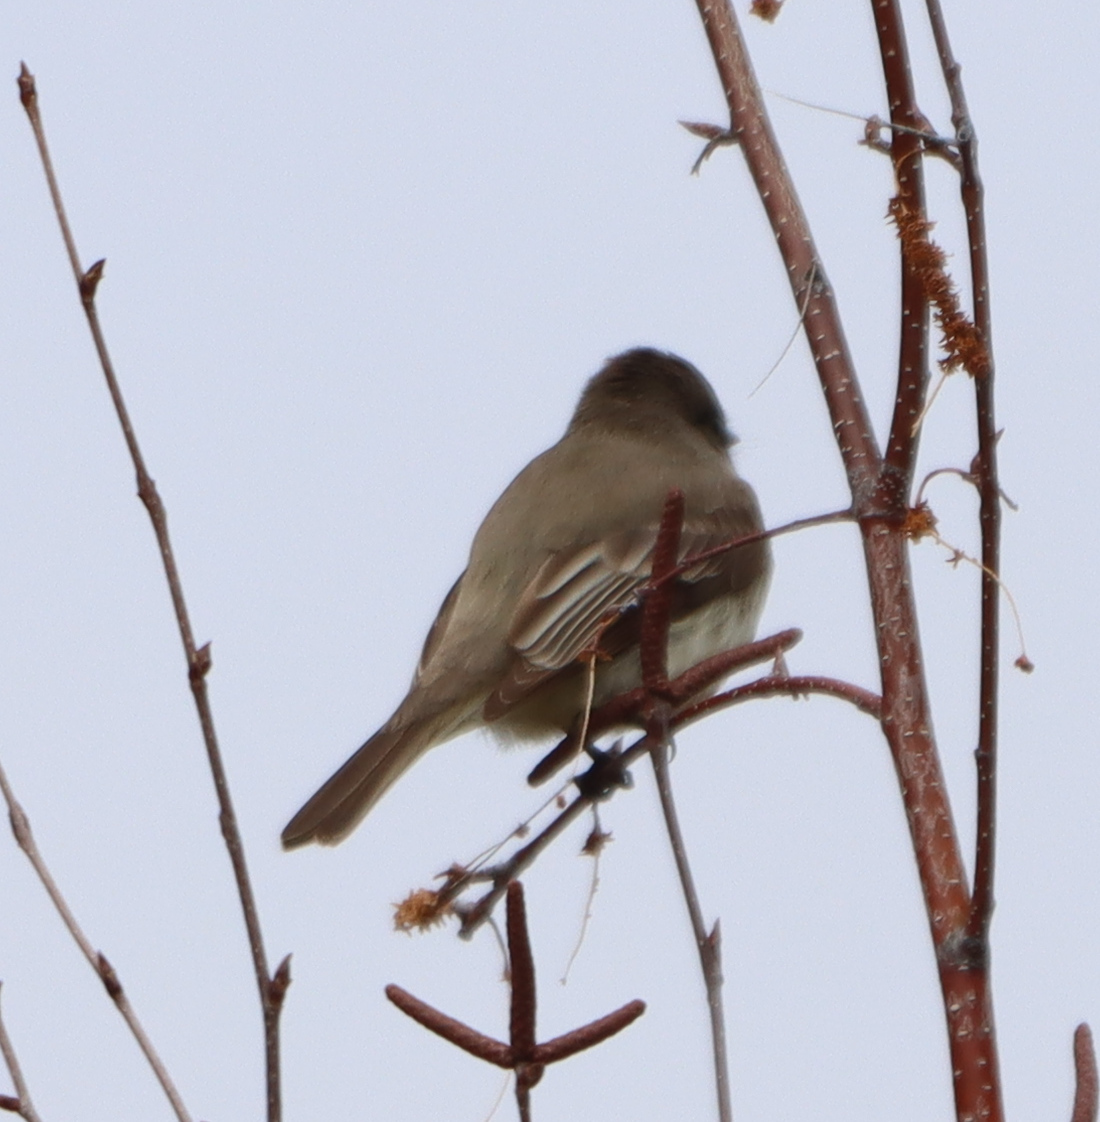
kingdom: Animalia
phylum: Chordata
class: Aves
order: Passeriformes
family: Tyrannidae
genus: Sayornis
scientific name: Sayornis phoebe
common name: Eastern phoebe
